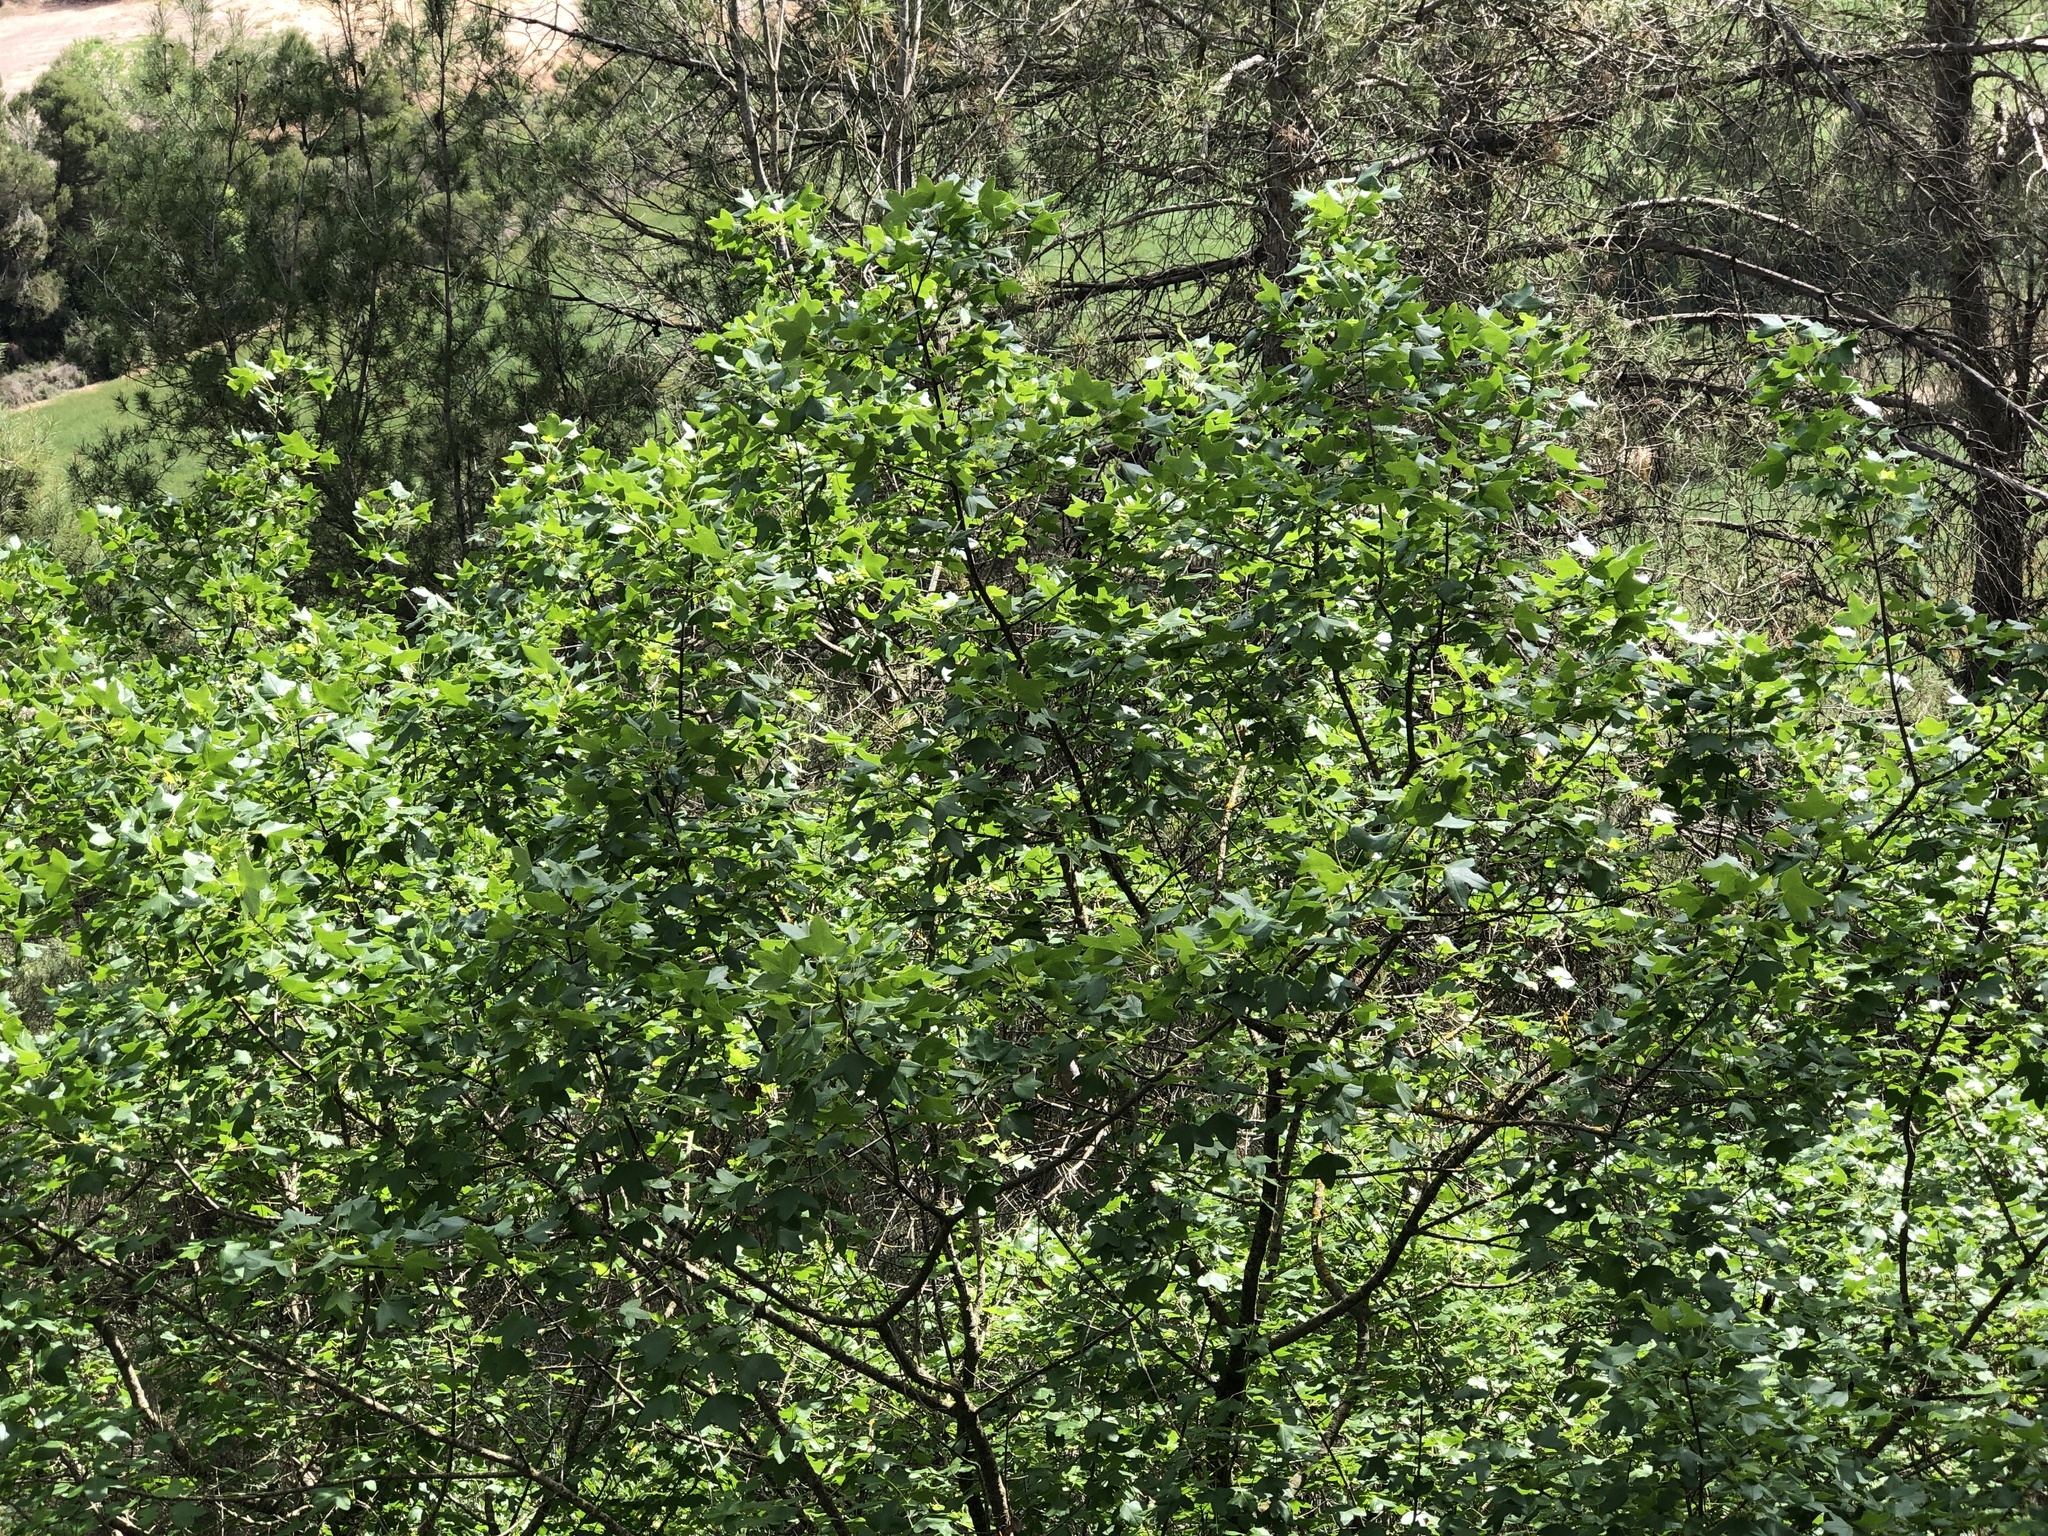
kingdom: Plantae
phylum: Tracheophyta
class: Magnoliopsida
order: Sapindales
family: Sapindaceae
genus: Acer
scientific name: Acer monspessulanum
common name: Montpellier maple
